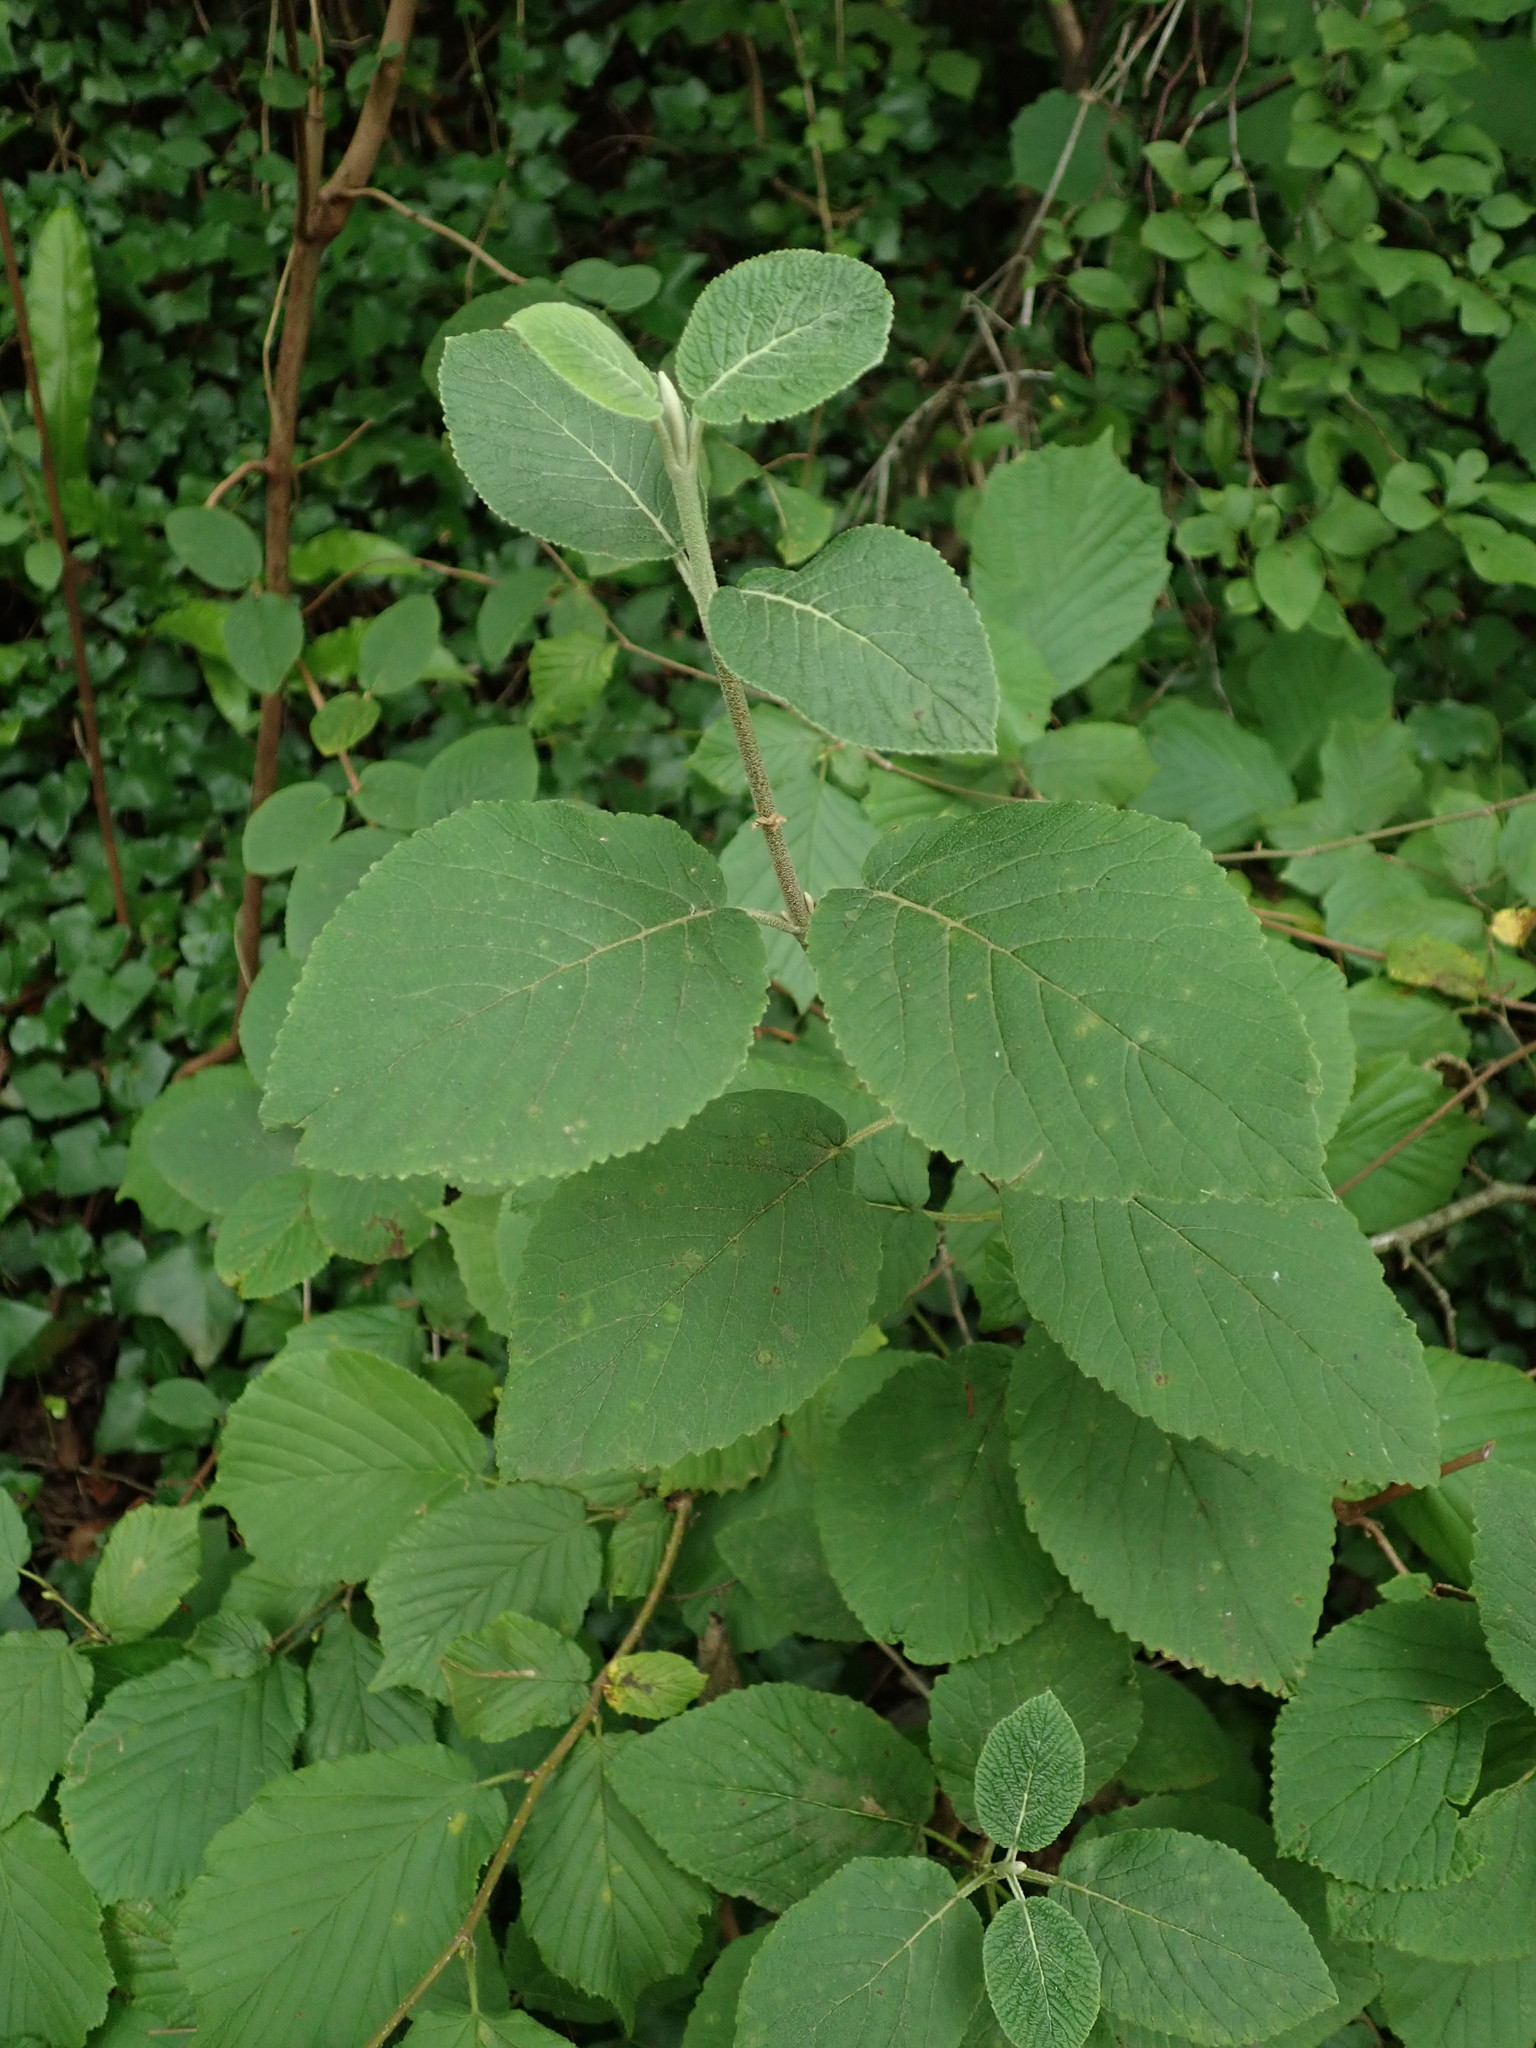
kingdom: Plantae
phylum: Tracheophyta
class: Magnoliopsida
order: Dipsacales
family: Viburnaceae
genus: Viburnum
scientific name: Viburnum lantana
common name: Wayfaring tree
